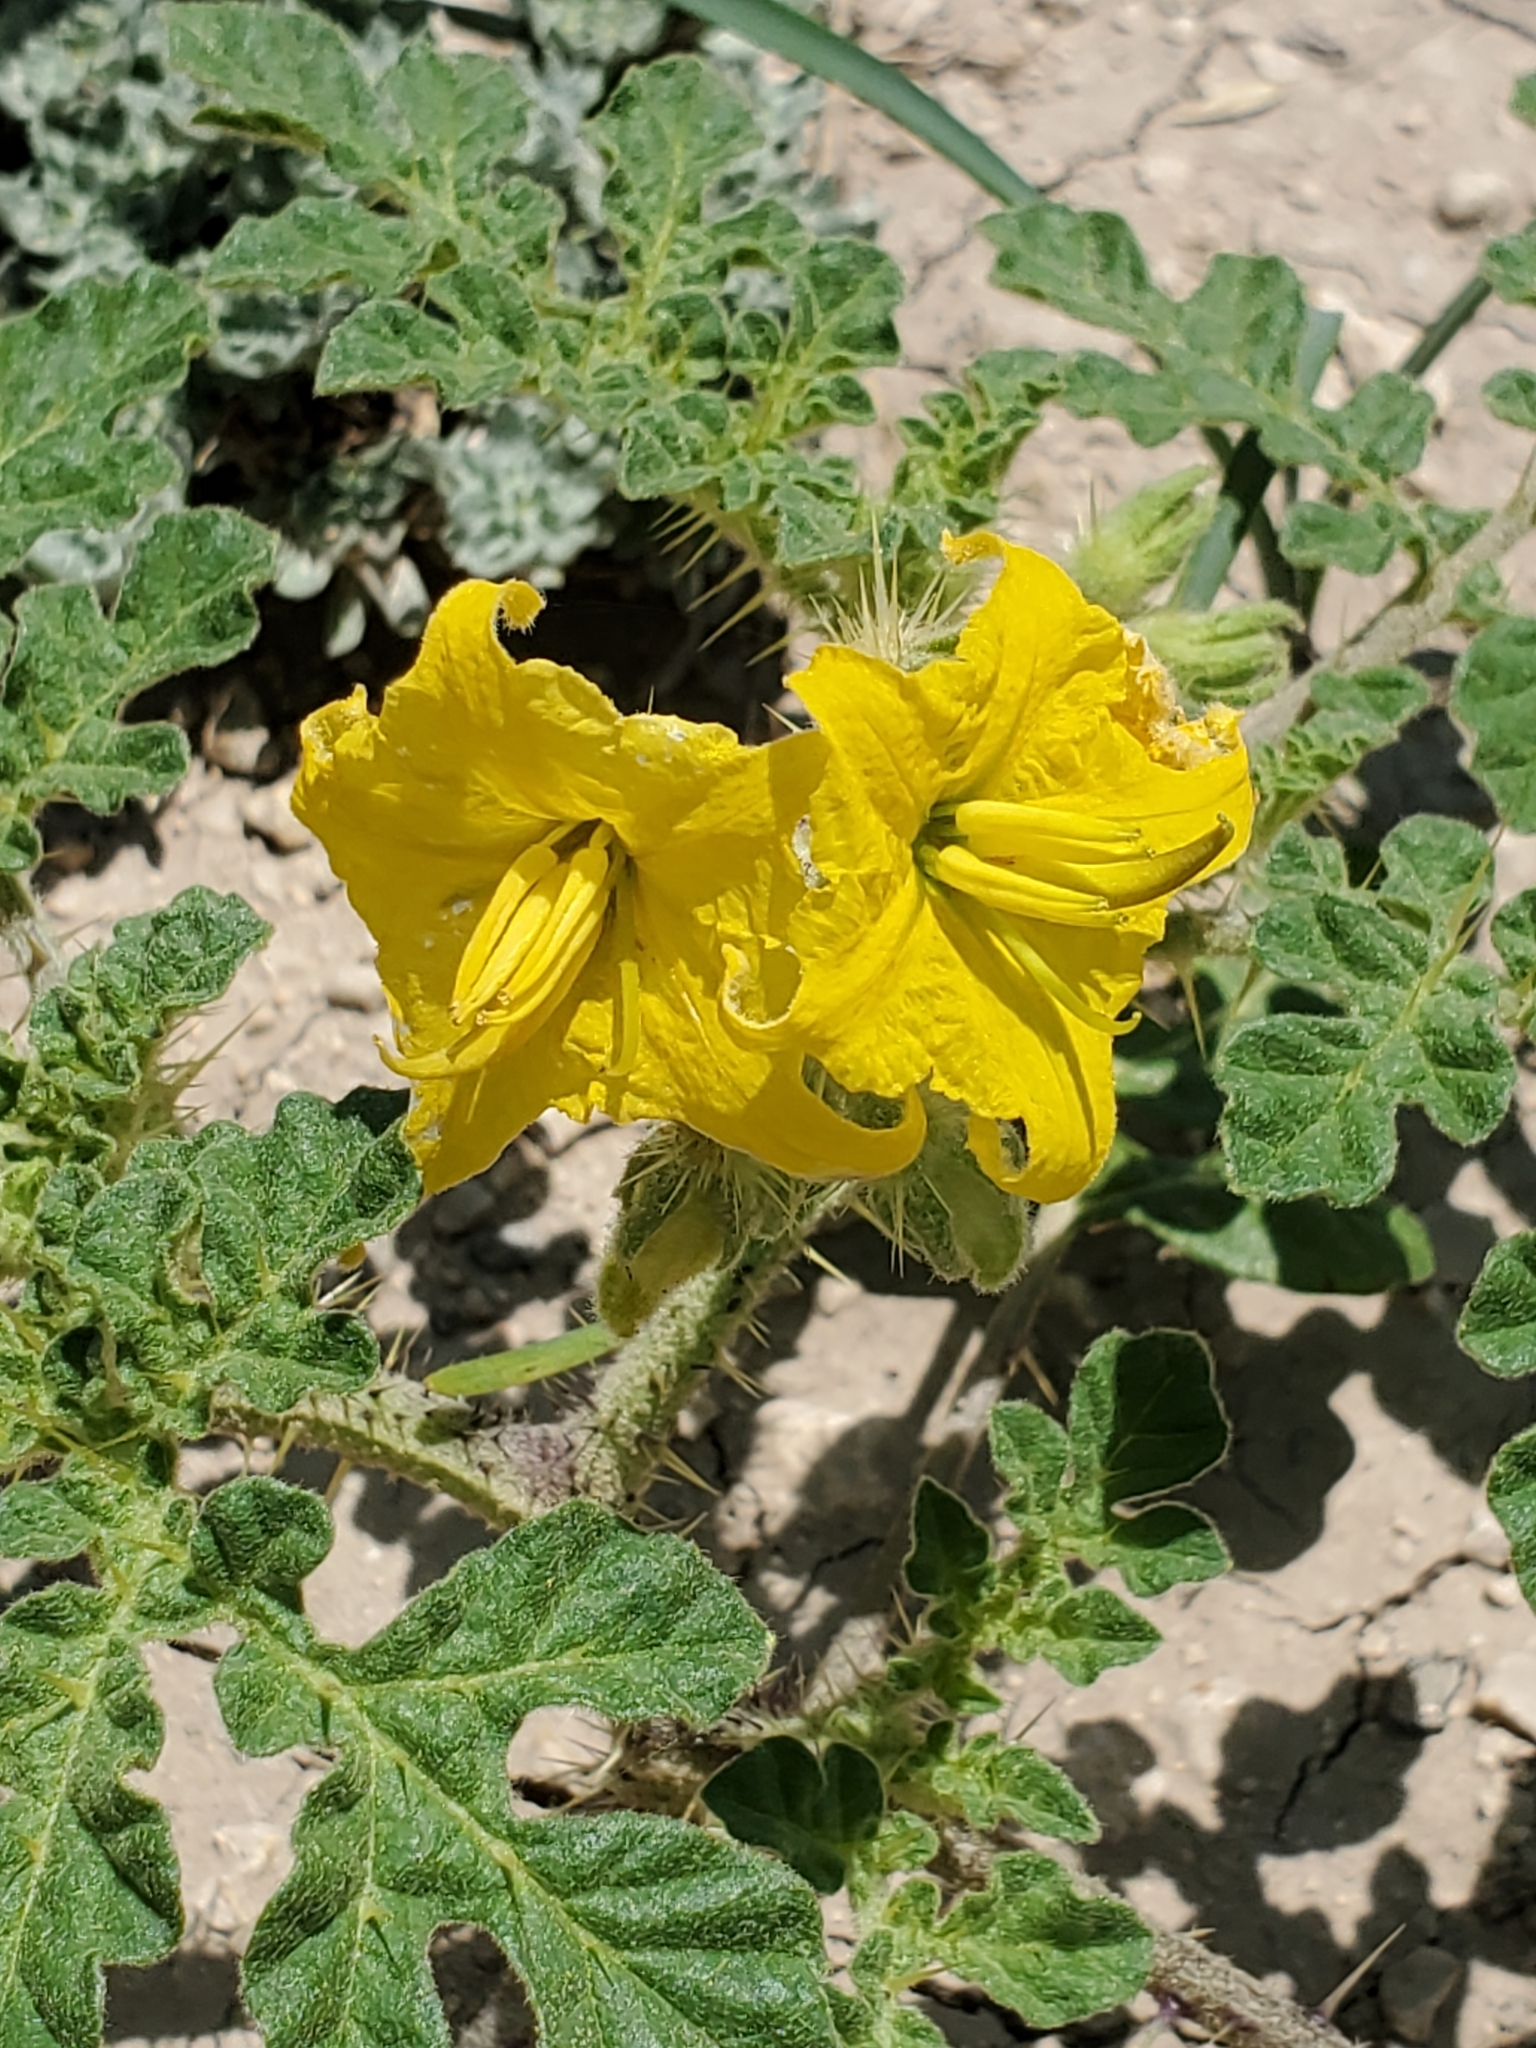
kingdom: Plantae
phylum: Tracheophyta
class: Magnoliopsida
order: Solanales
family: Solanaceae
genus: Solanum
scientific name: Solanum angustifolium
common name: Buffalobur nightshade
